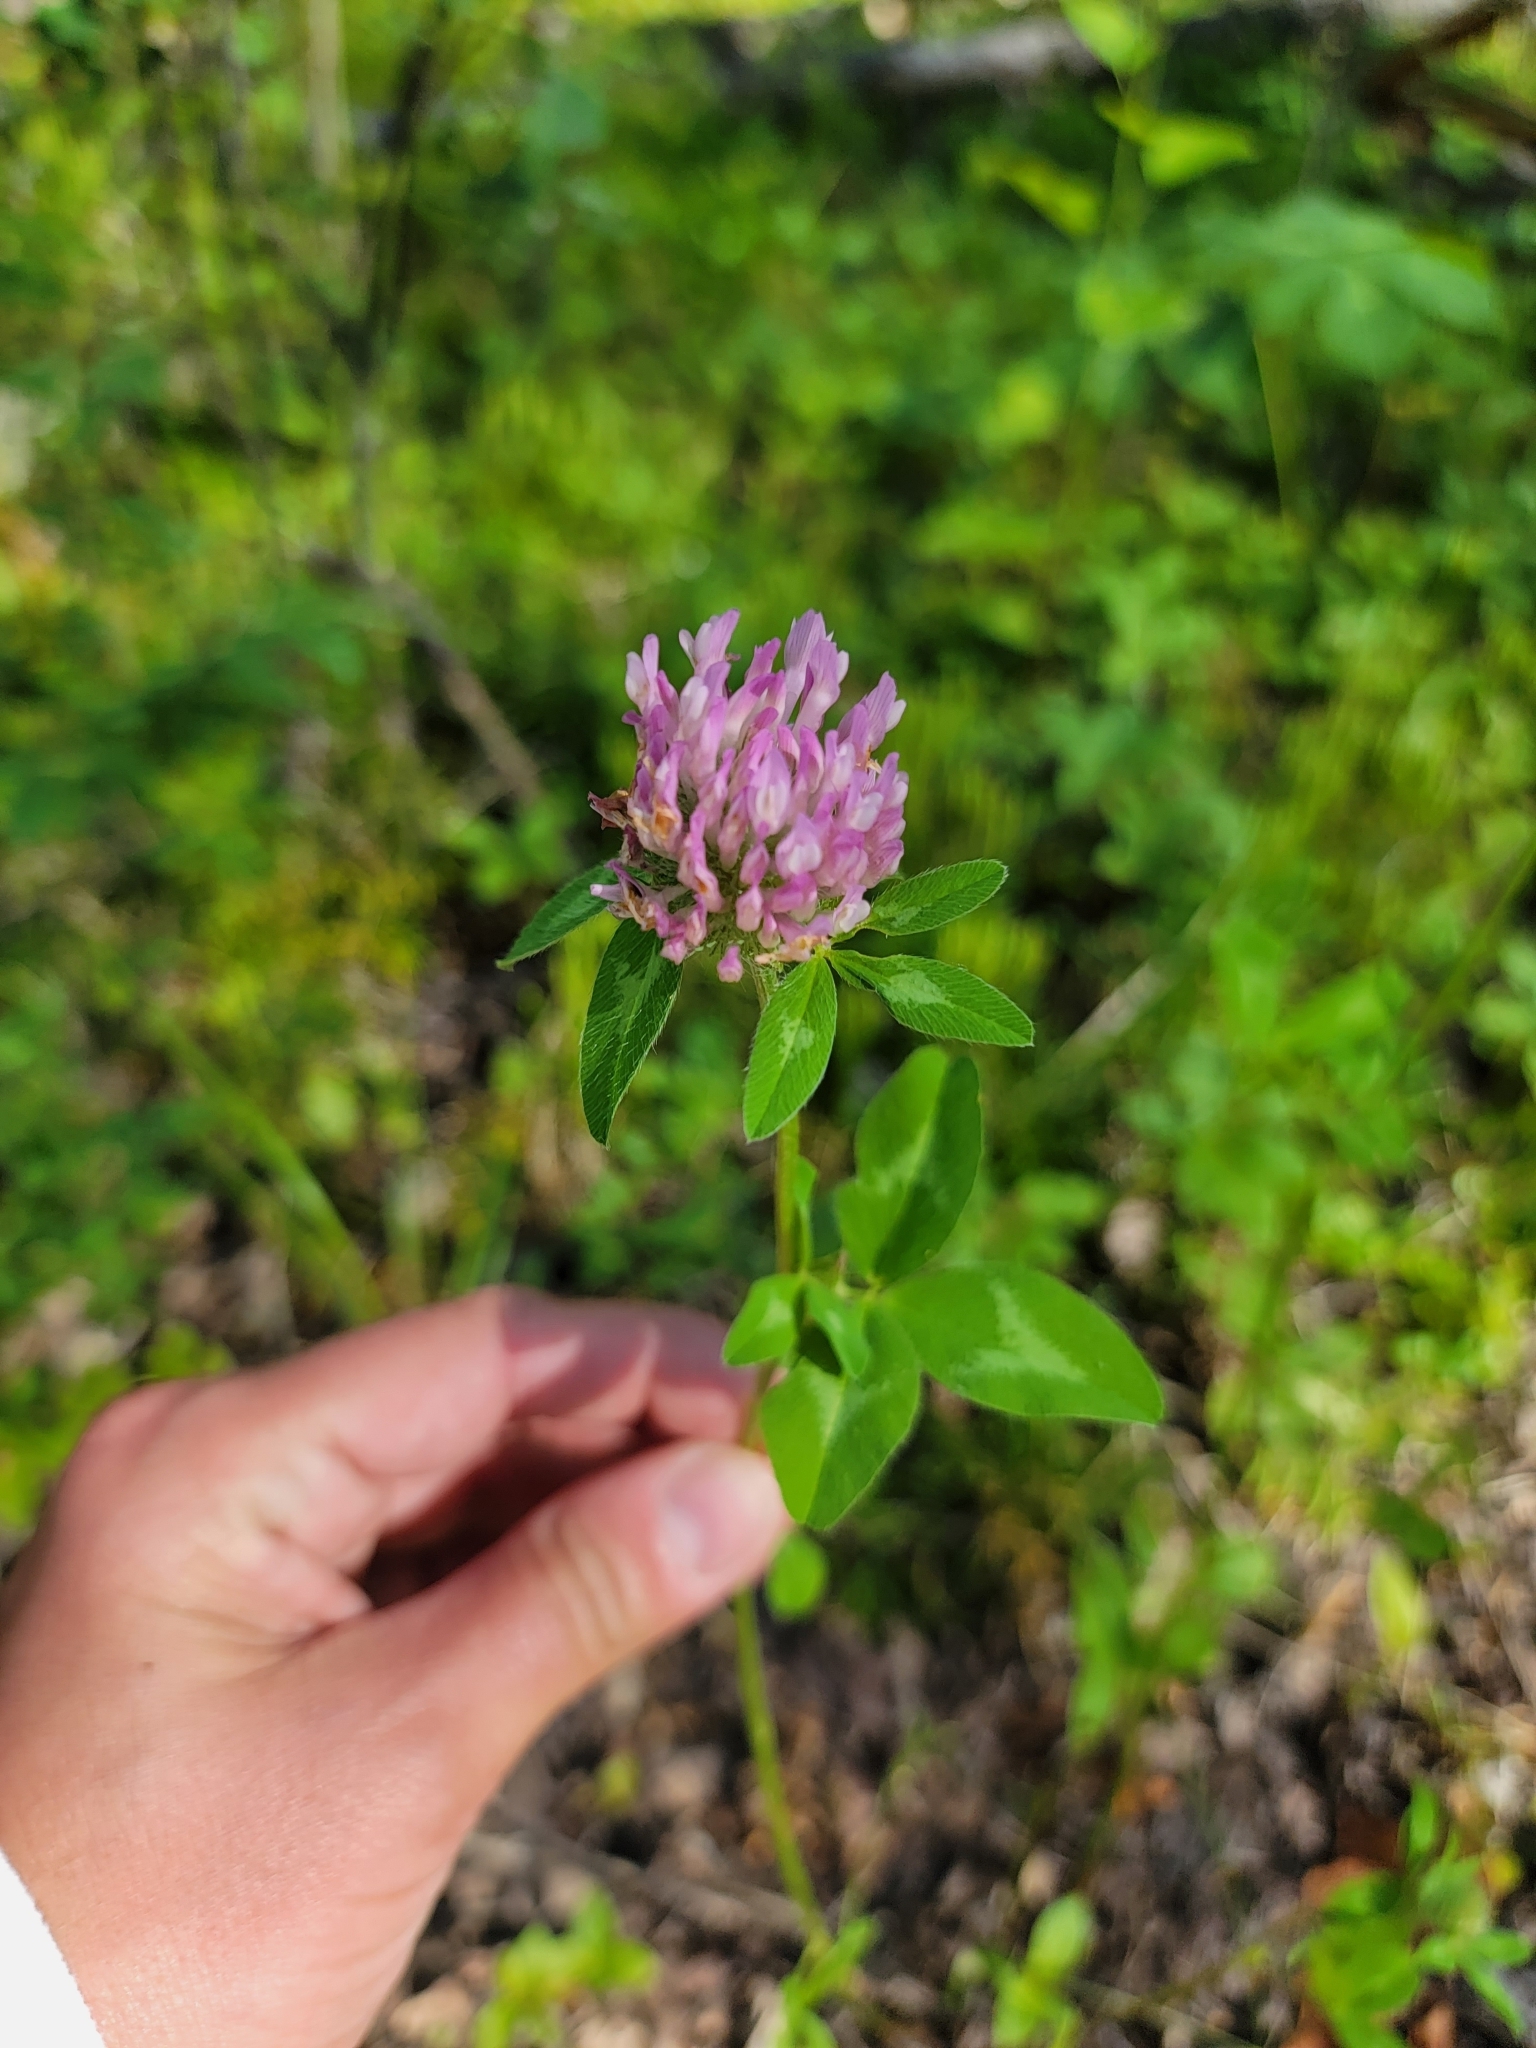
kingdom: Plantae
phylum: Tracheophyta
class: Magnoliopsida
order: Fabales
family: Fabaceae
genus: Trifolium
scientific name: Trifolium pratense
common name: Red clover
